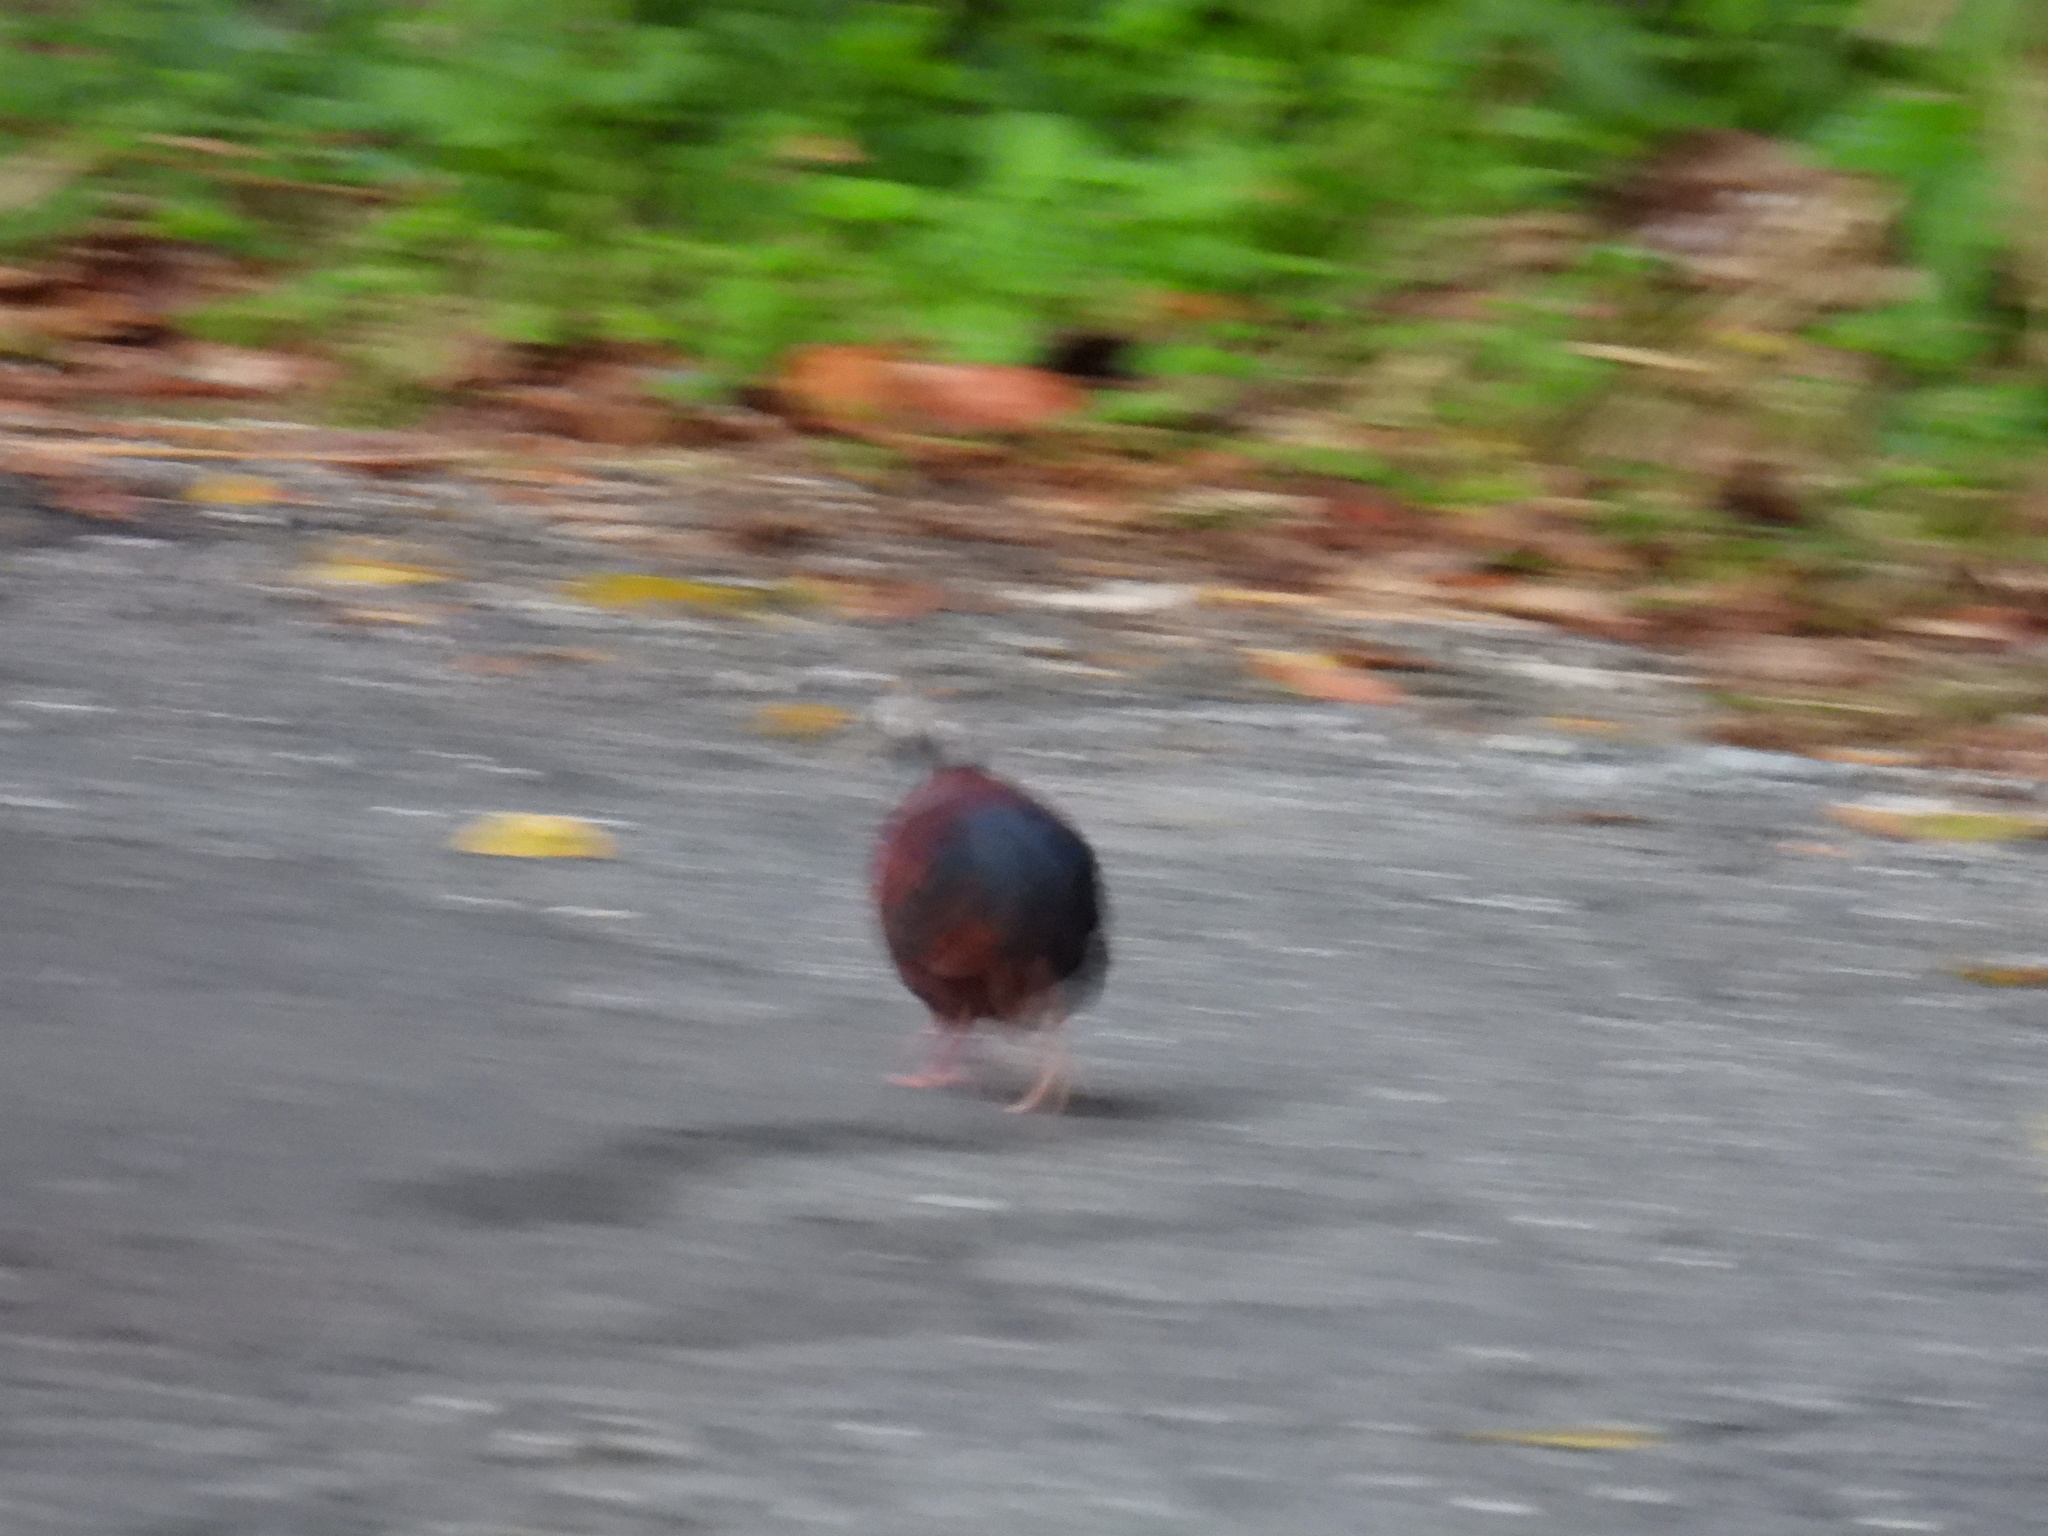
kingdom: Animalia
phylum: Chordata
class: Aves
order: Columbiformes
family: Columbidae
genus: Geotrygon
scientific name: Geotrygon versicolor
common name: Crested quail-dove
